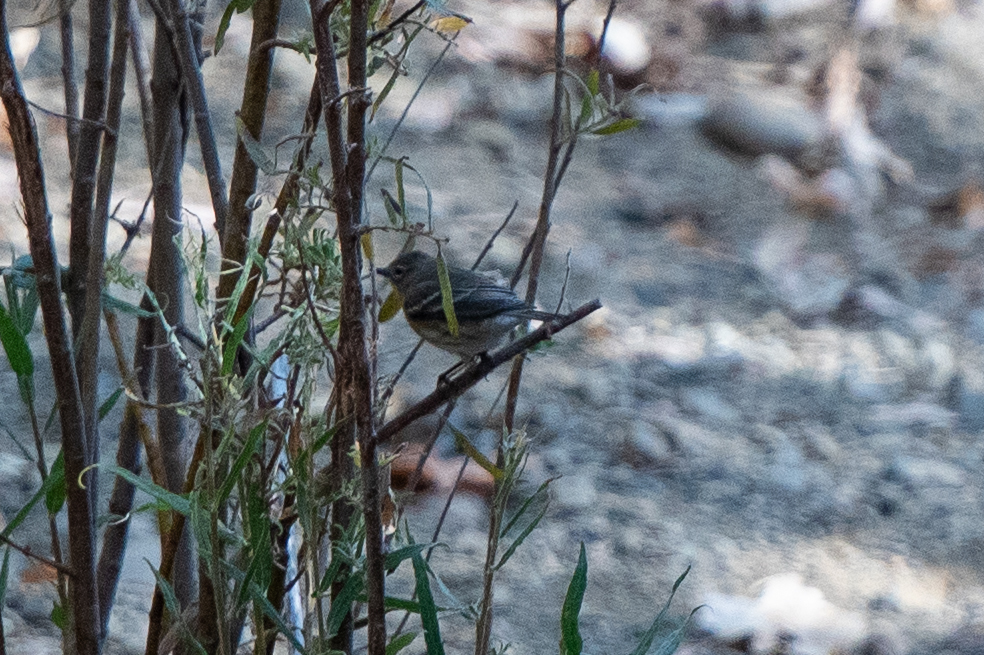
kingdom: Animalia
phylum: Chordata
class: Aves
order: Passeriformes
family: Parulidae
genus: Setophaga
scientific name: Setophaga coronata
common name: Myrtle warbler
